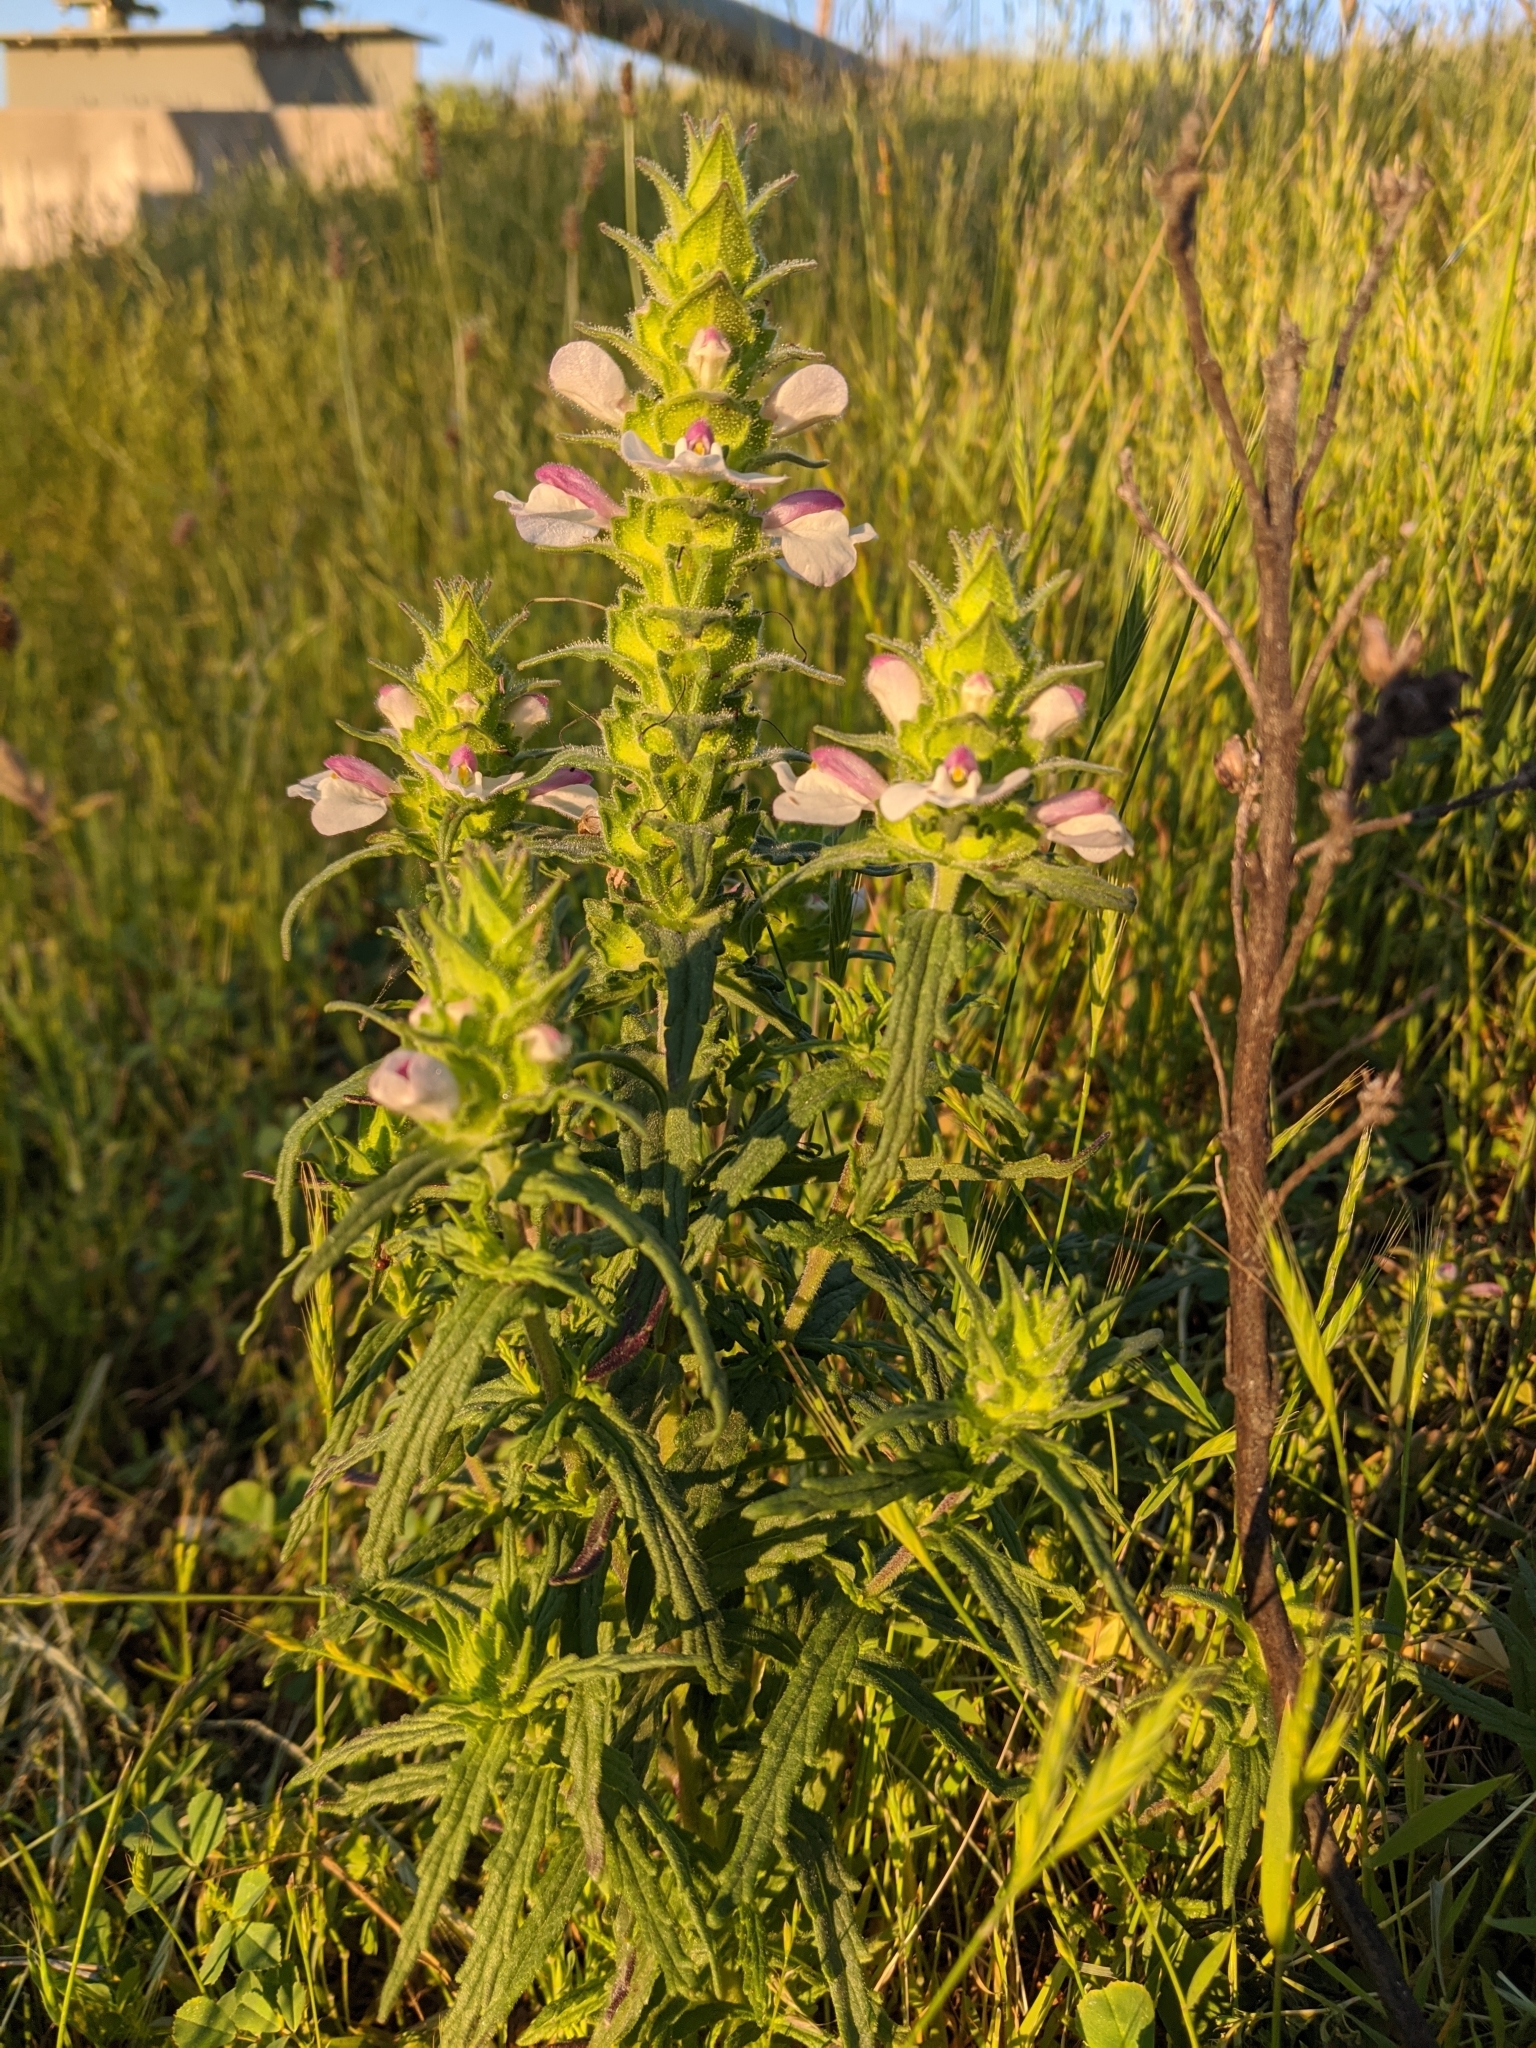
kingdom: Plantae
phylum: Tracheophyta
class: Magnoliopsida
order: Lamiales
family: Orobanchaceae
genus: Bellardia
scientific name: Bellardia trixago
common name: Mediterranean lineseed
